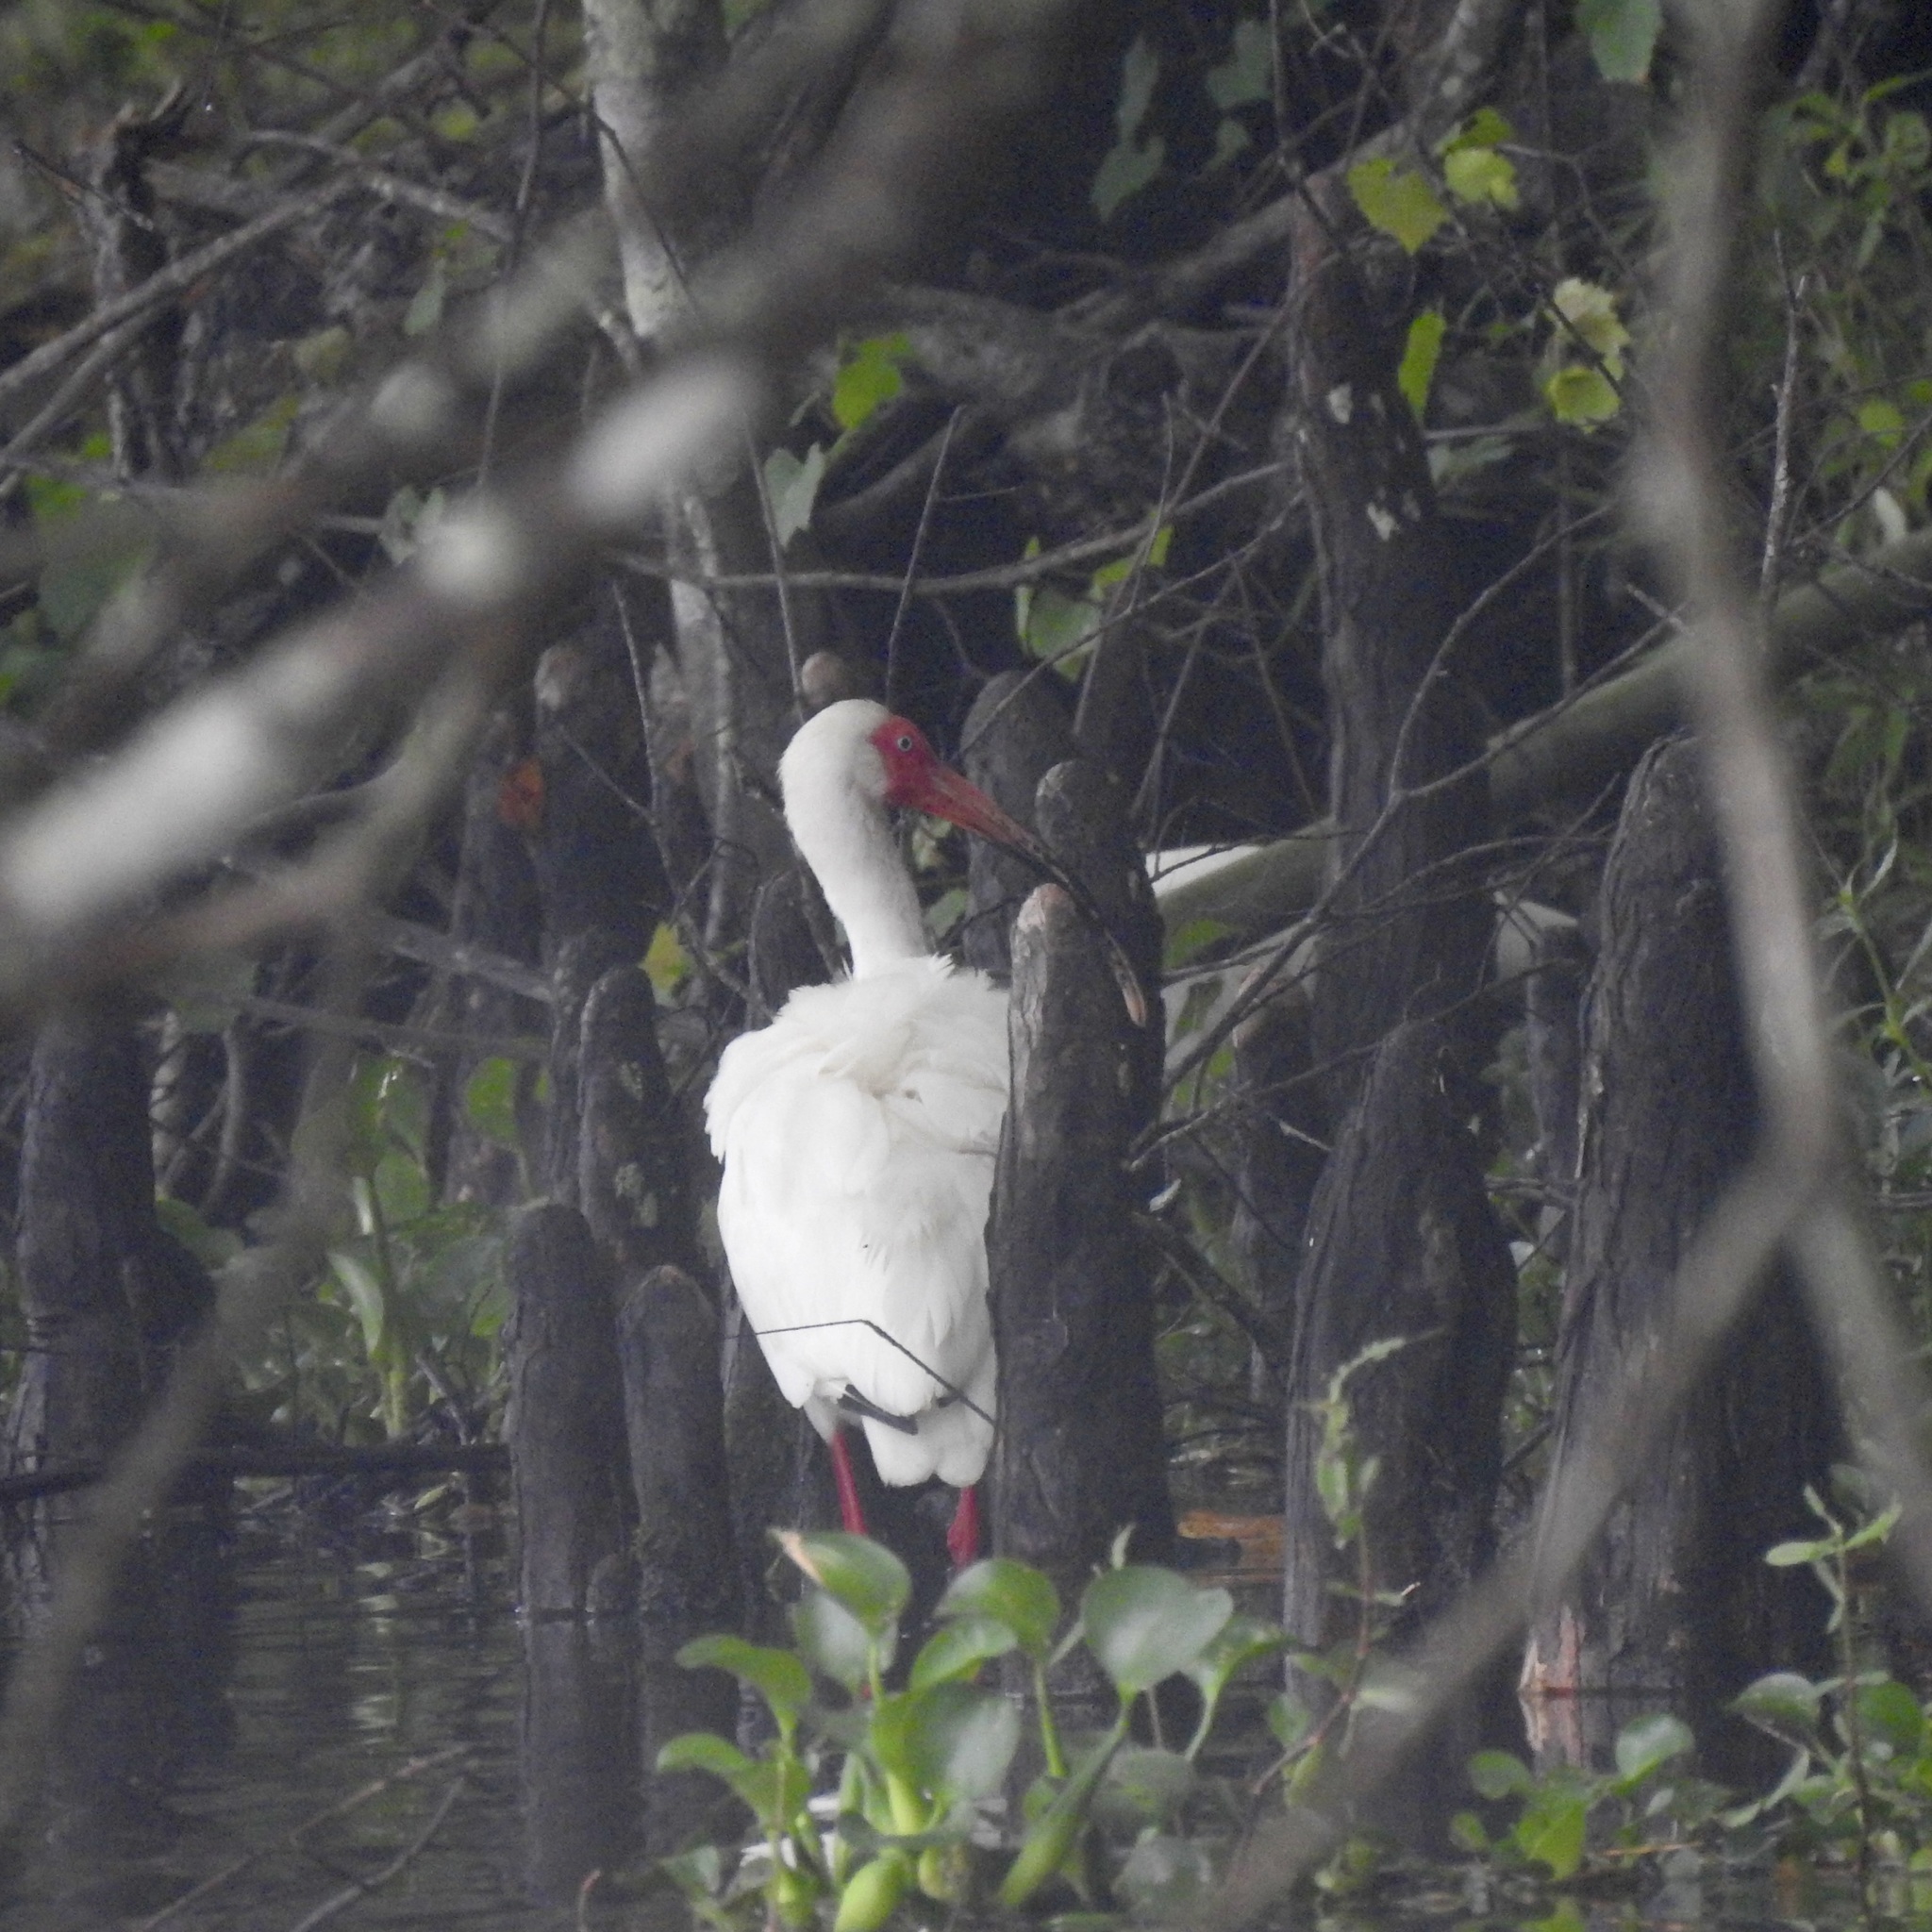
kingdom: Animalia
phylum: Chordata
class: Aves
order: Pelecaniformes
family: Threskiornithidae
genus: Eudocimus
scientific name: Eudocimus albus
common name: White ibis
